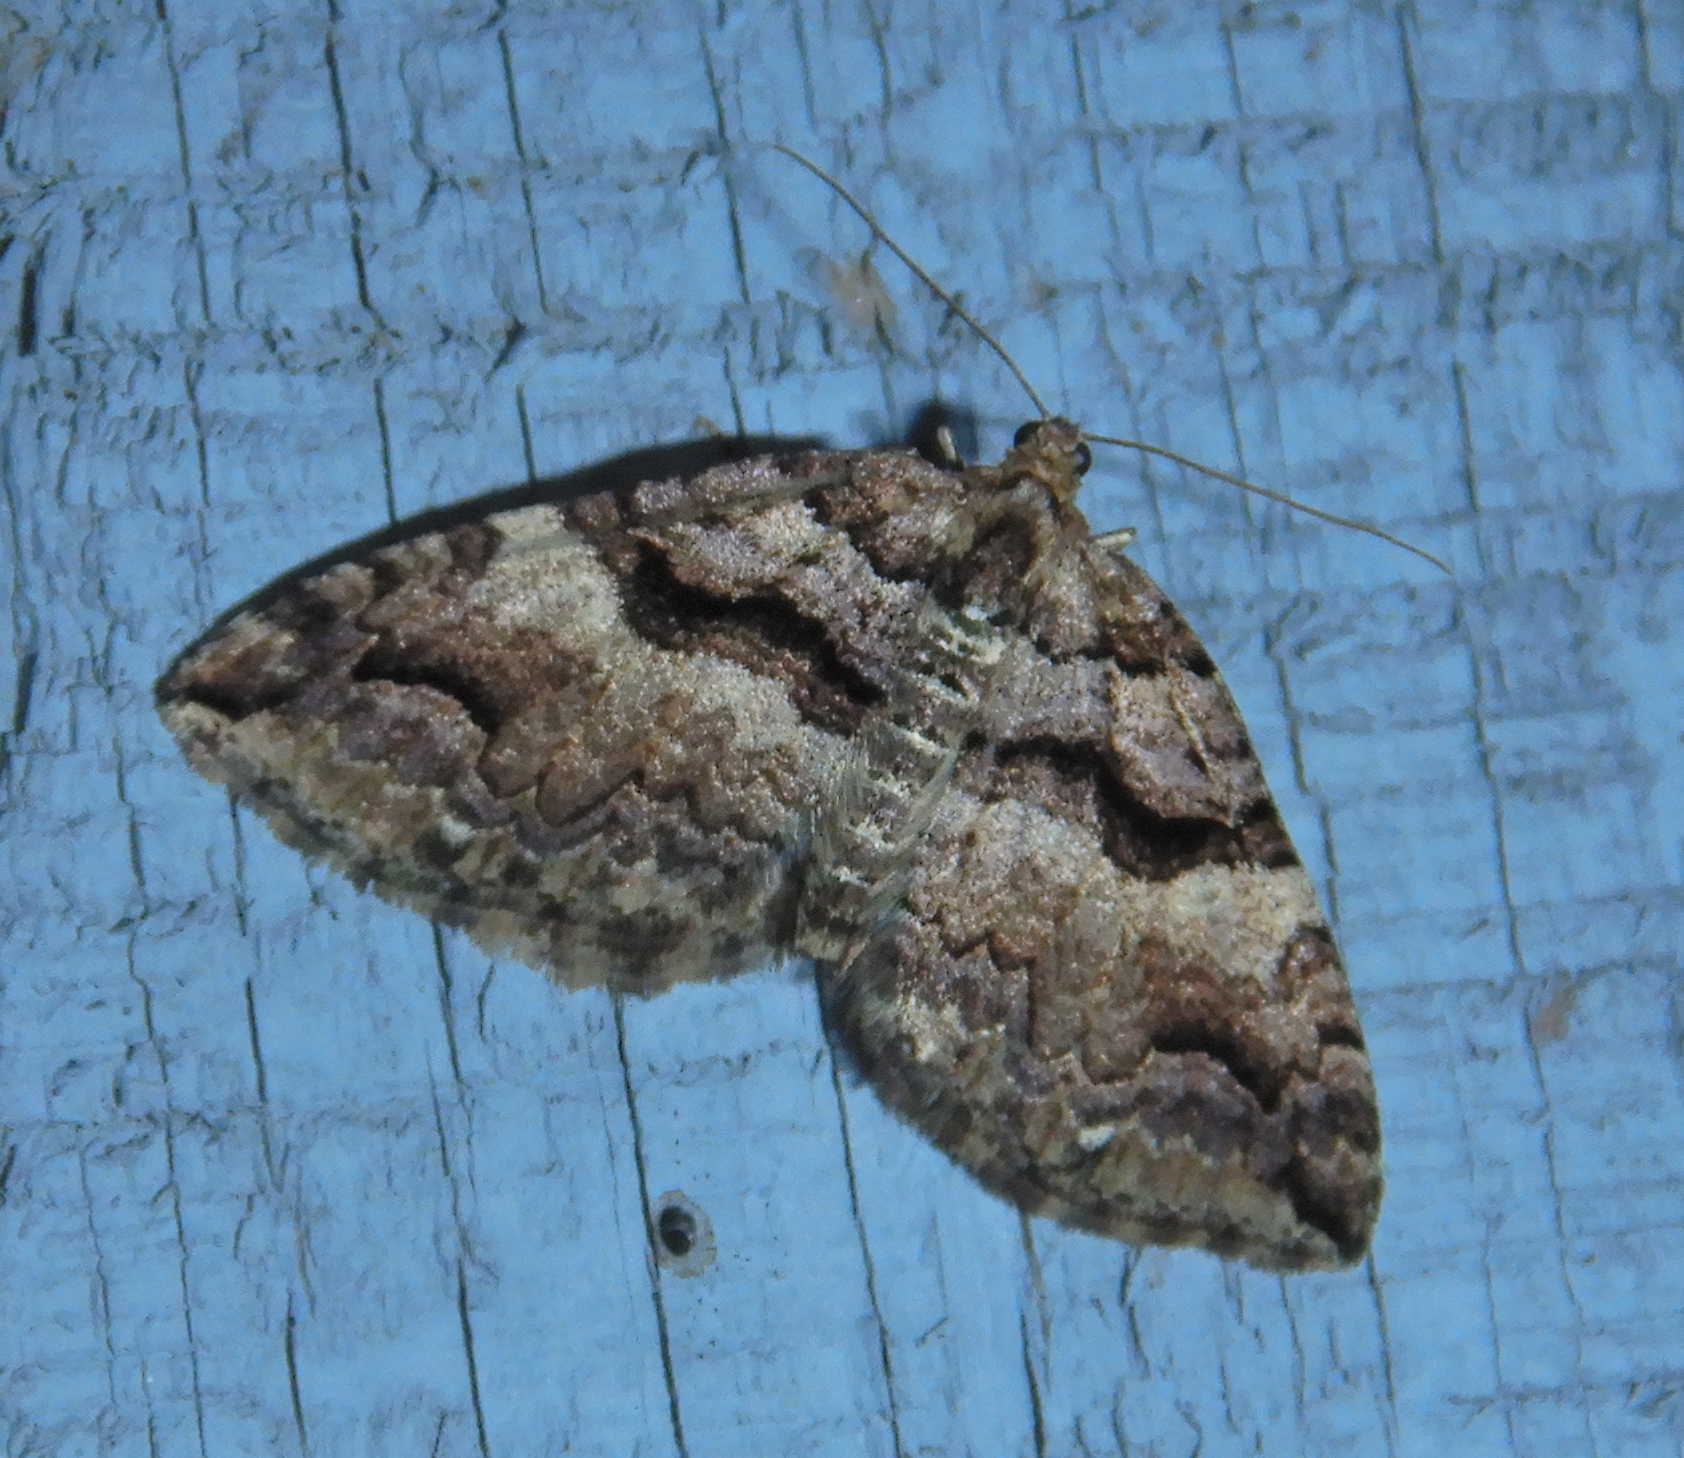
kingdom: Animalia
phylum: Arthropoda
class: Insecta
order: Lepidoptera
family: Geometridae
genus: Anticlea
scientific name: Anticlea vasiliata
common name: Variable carpet
